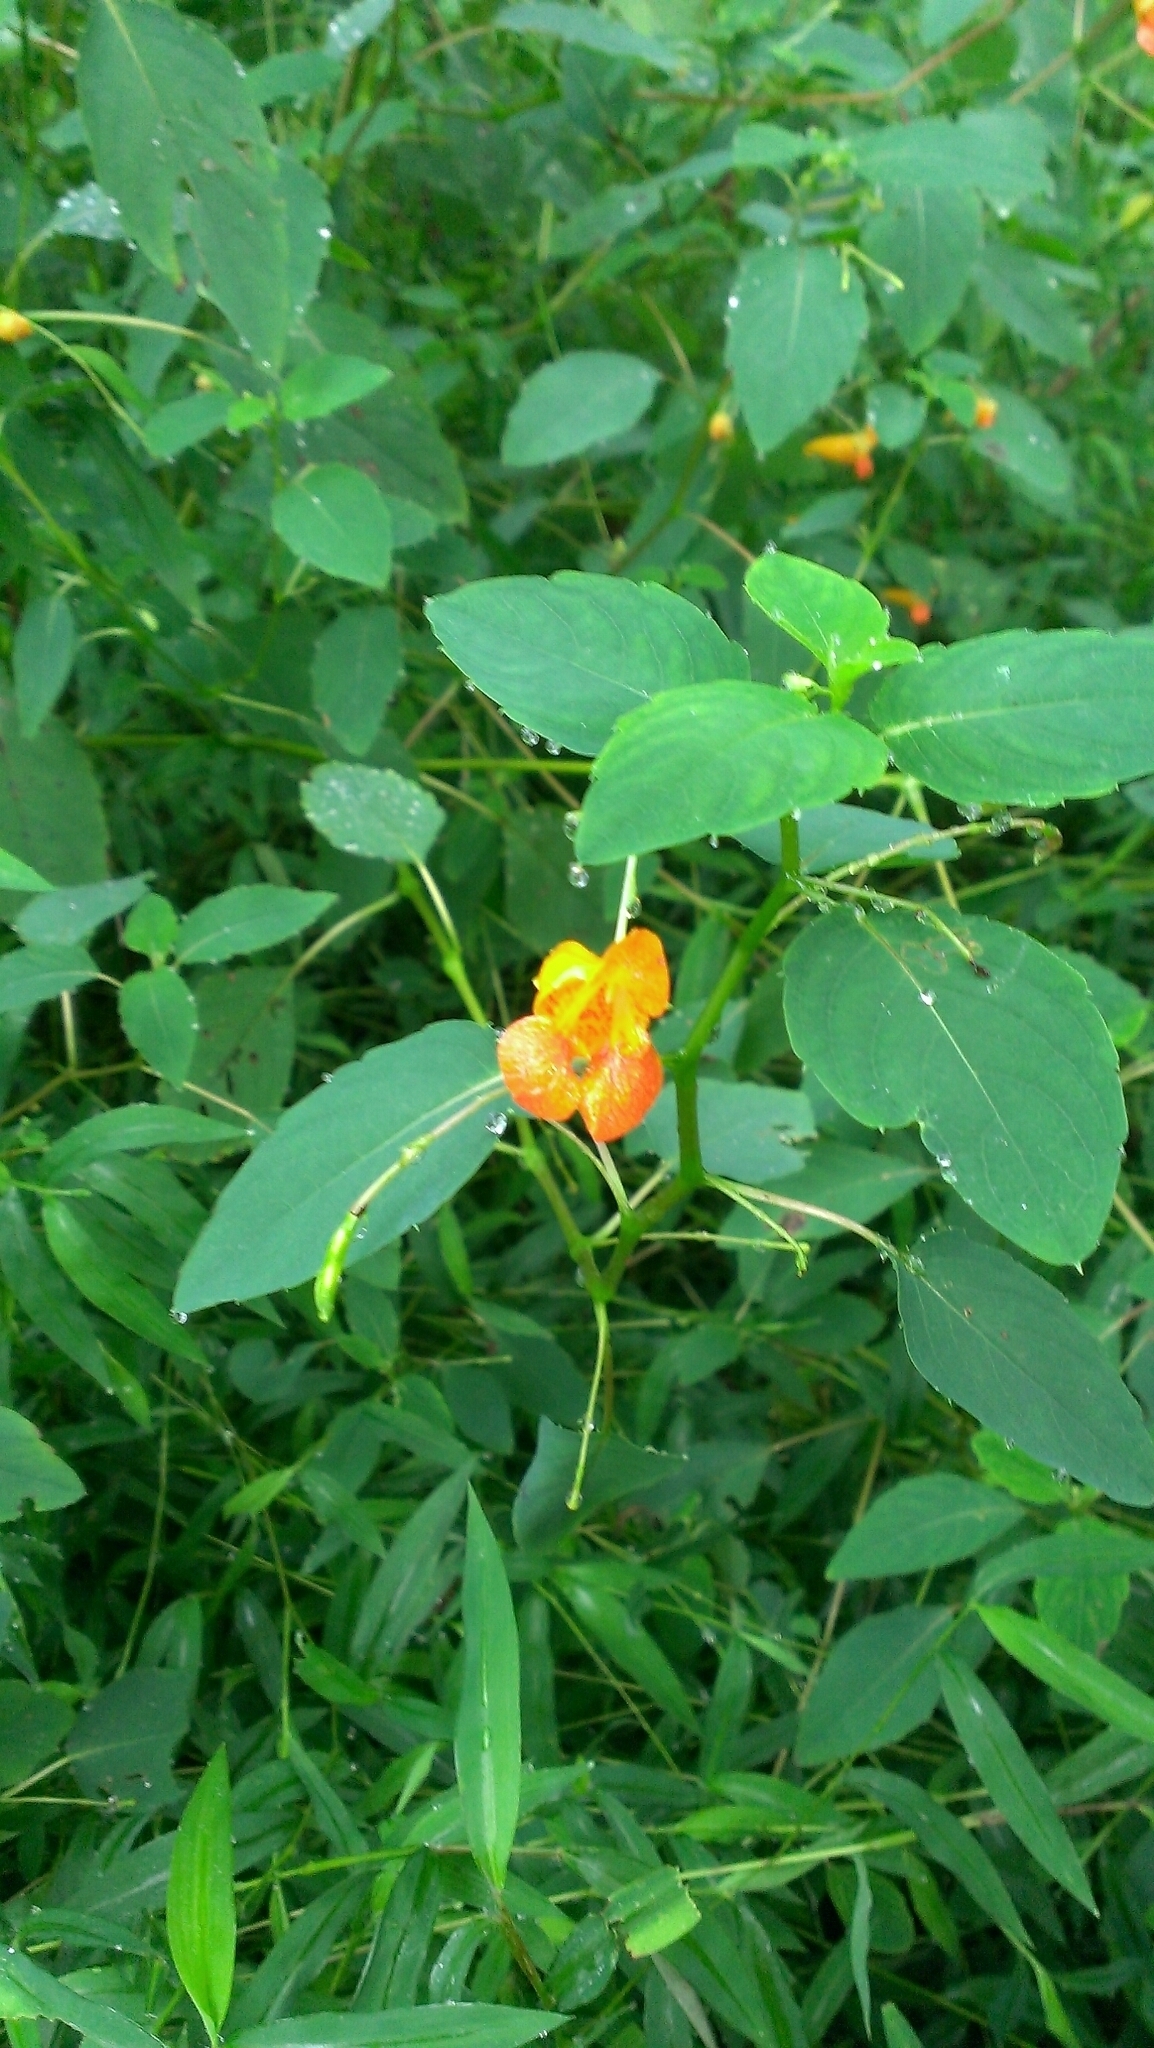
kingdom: Plantae
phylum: Tracheophyta
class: Magnoliopsida
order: Ericales
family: Balsaminaceae
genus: Impatiens
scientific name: Impatiens capensis
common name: Orange balsam
